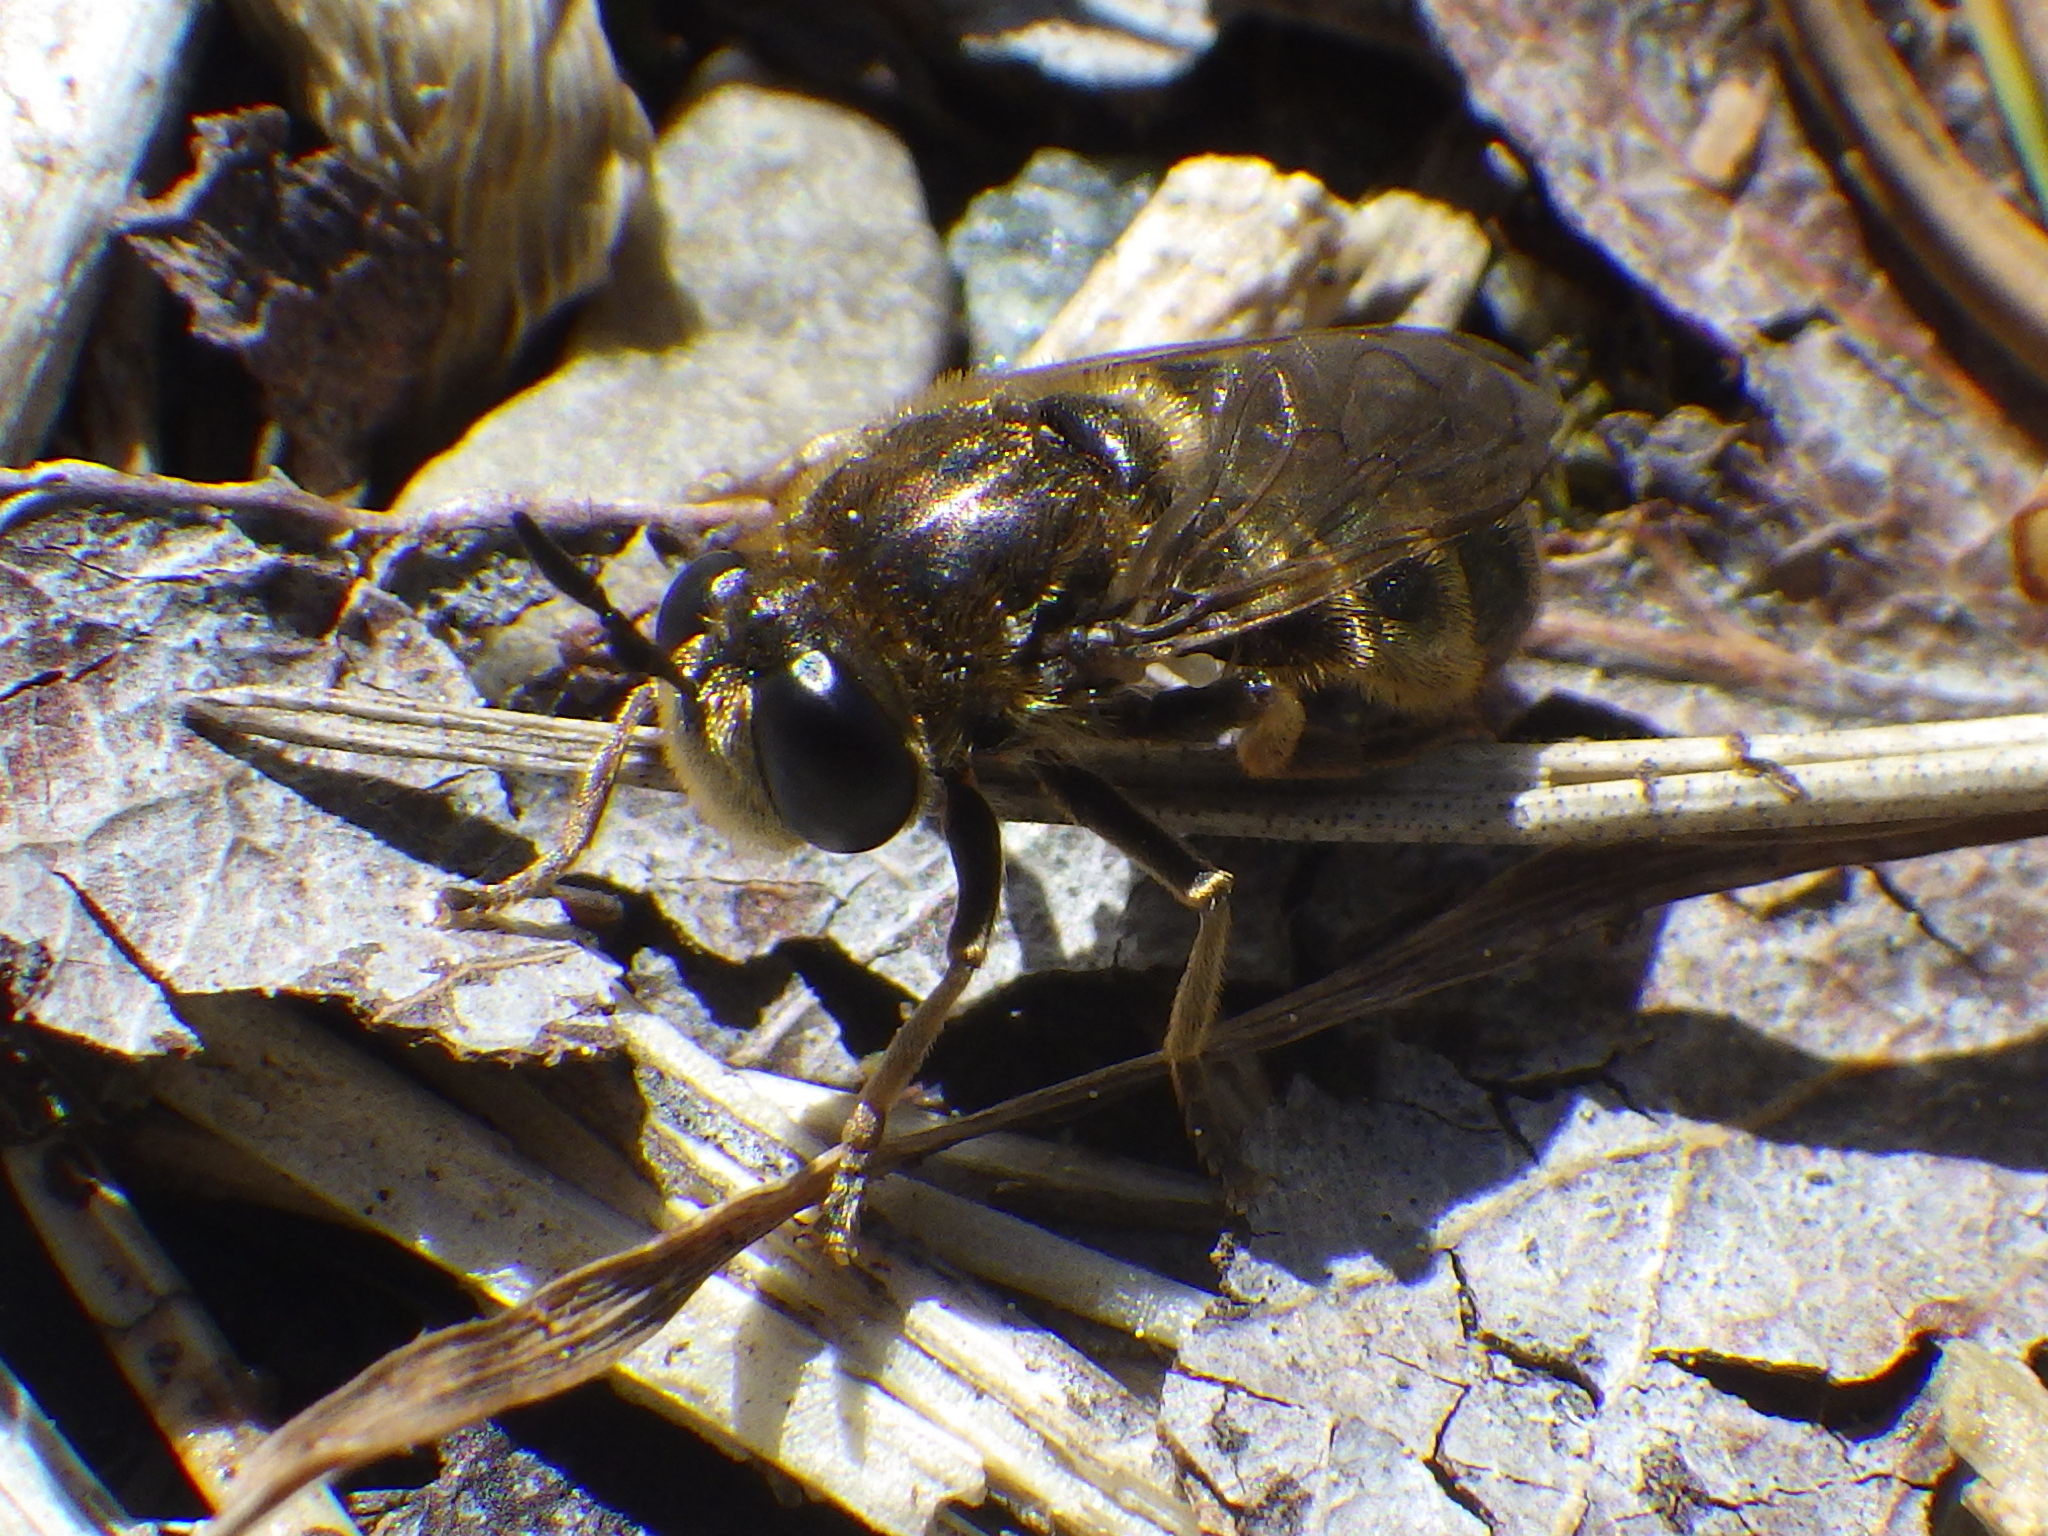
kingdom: Animalia
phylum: Arthropoda
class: Insecta
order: Diptera
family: Syrphidae
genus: Microdon
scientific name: Microdon manitobensis
